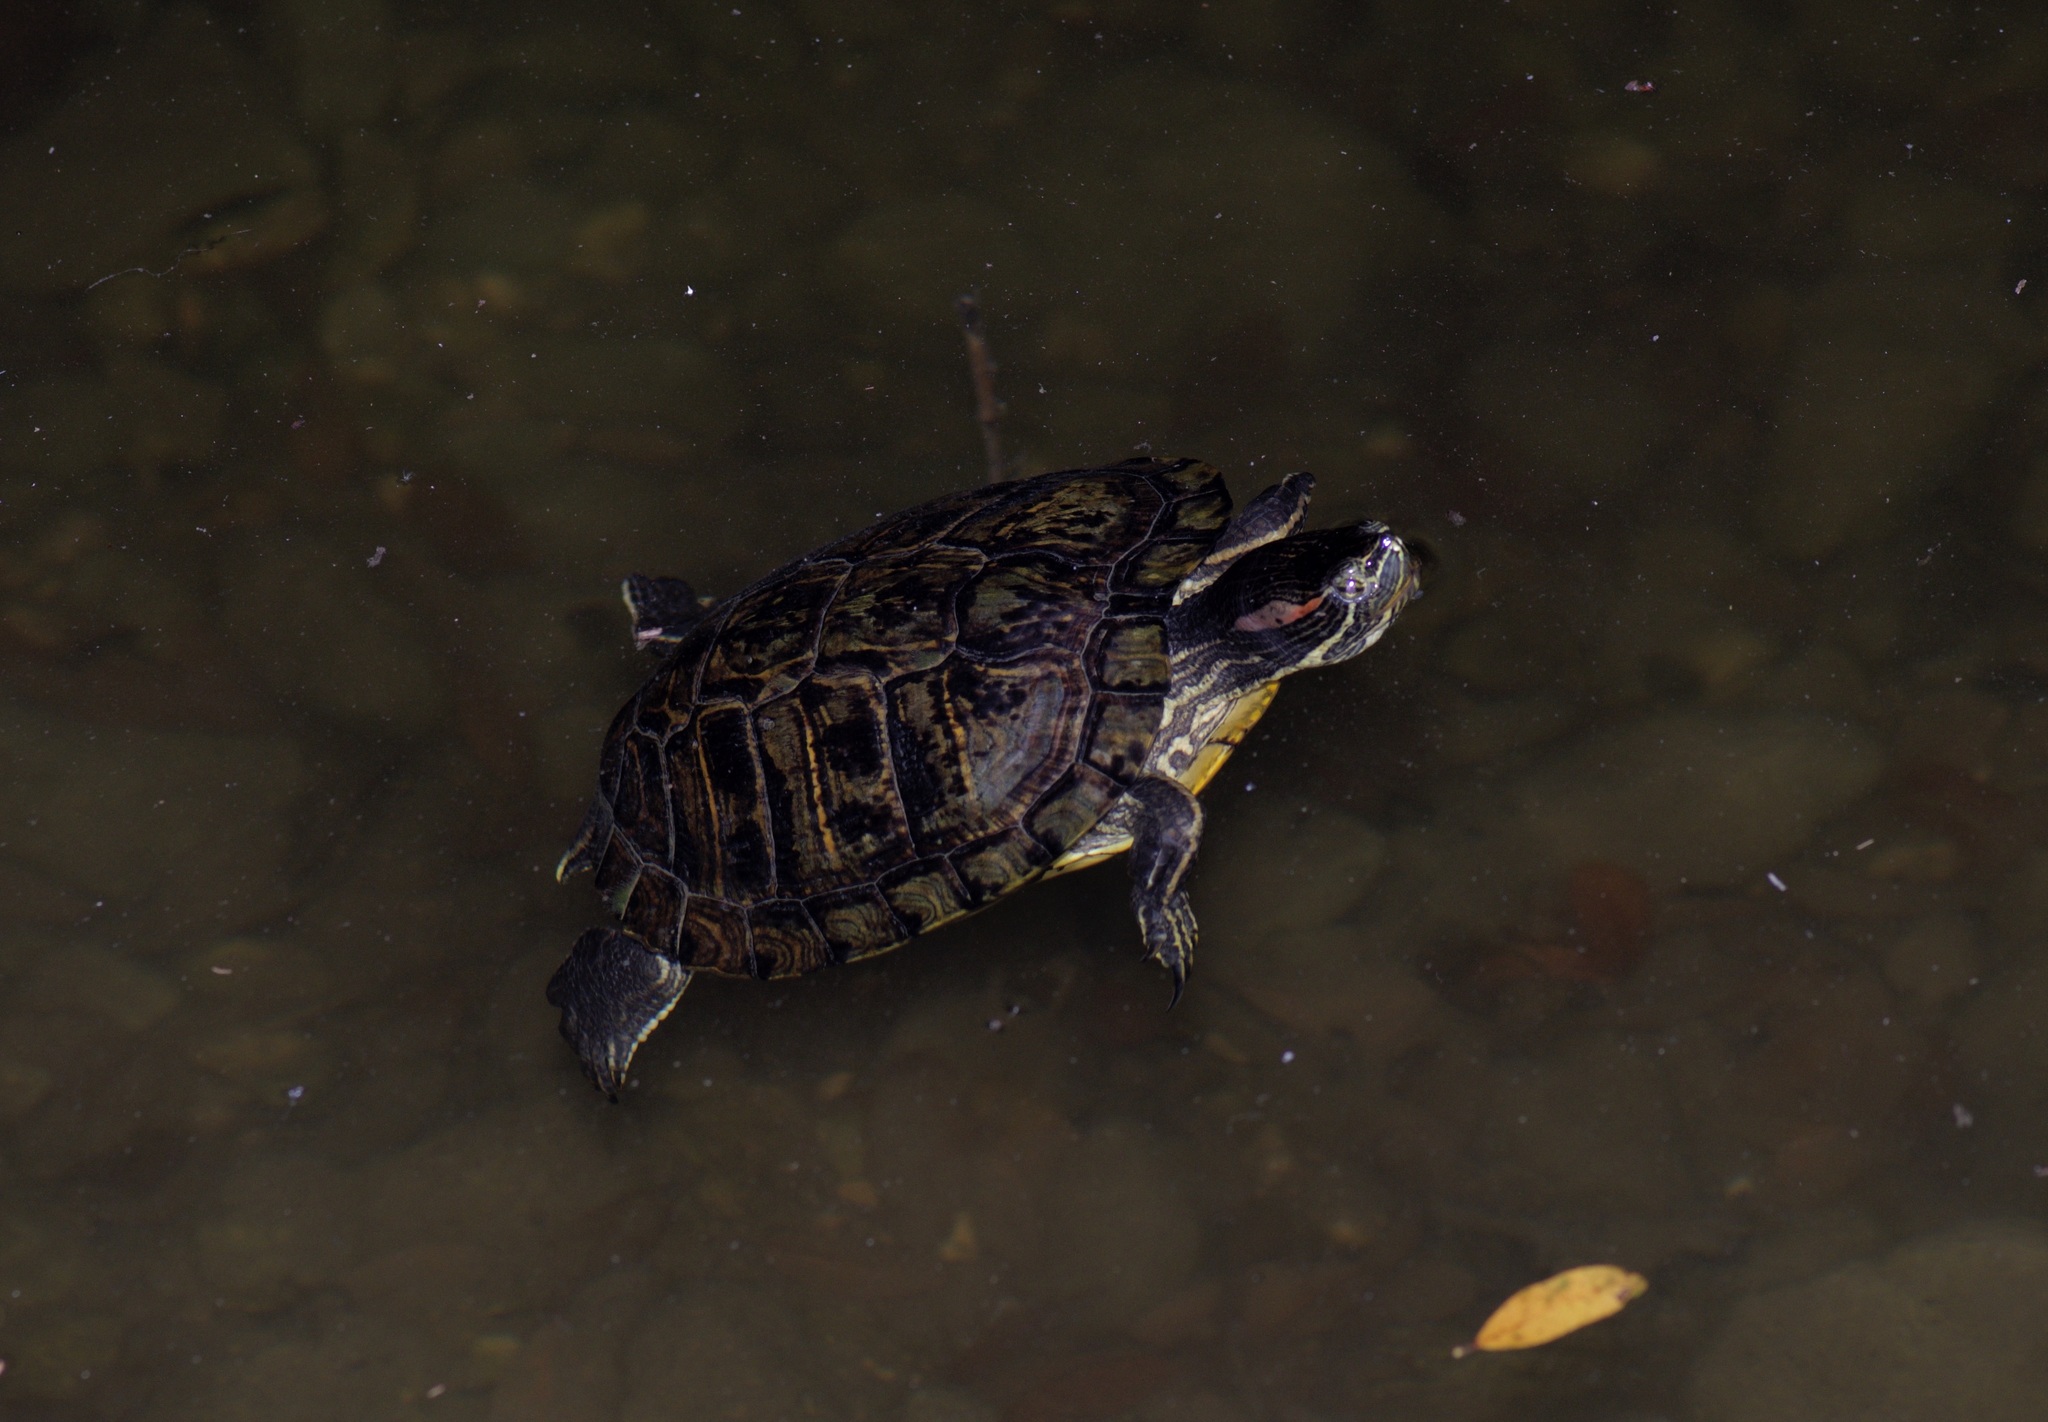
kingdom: Animalia
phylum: Chordata
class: Testudines
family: Emydidae
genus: Trachemys
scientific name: Trachemys scripta
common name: Slider
